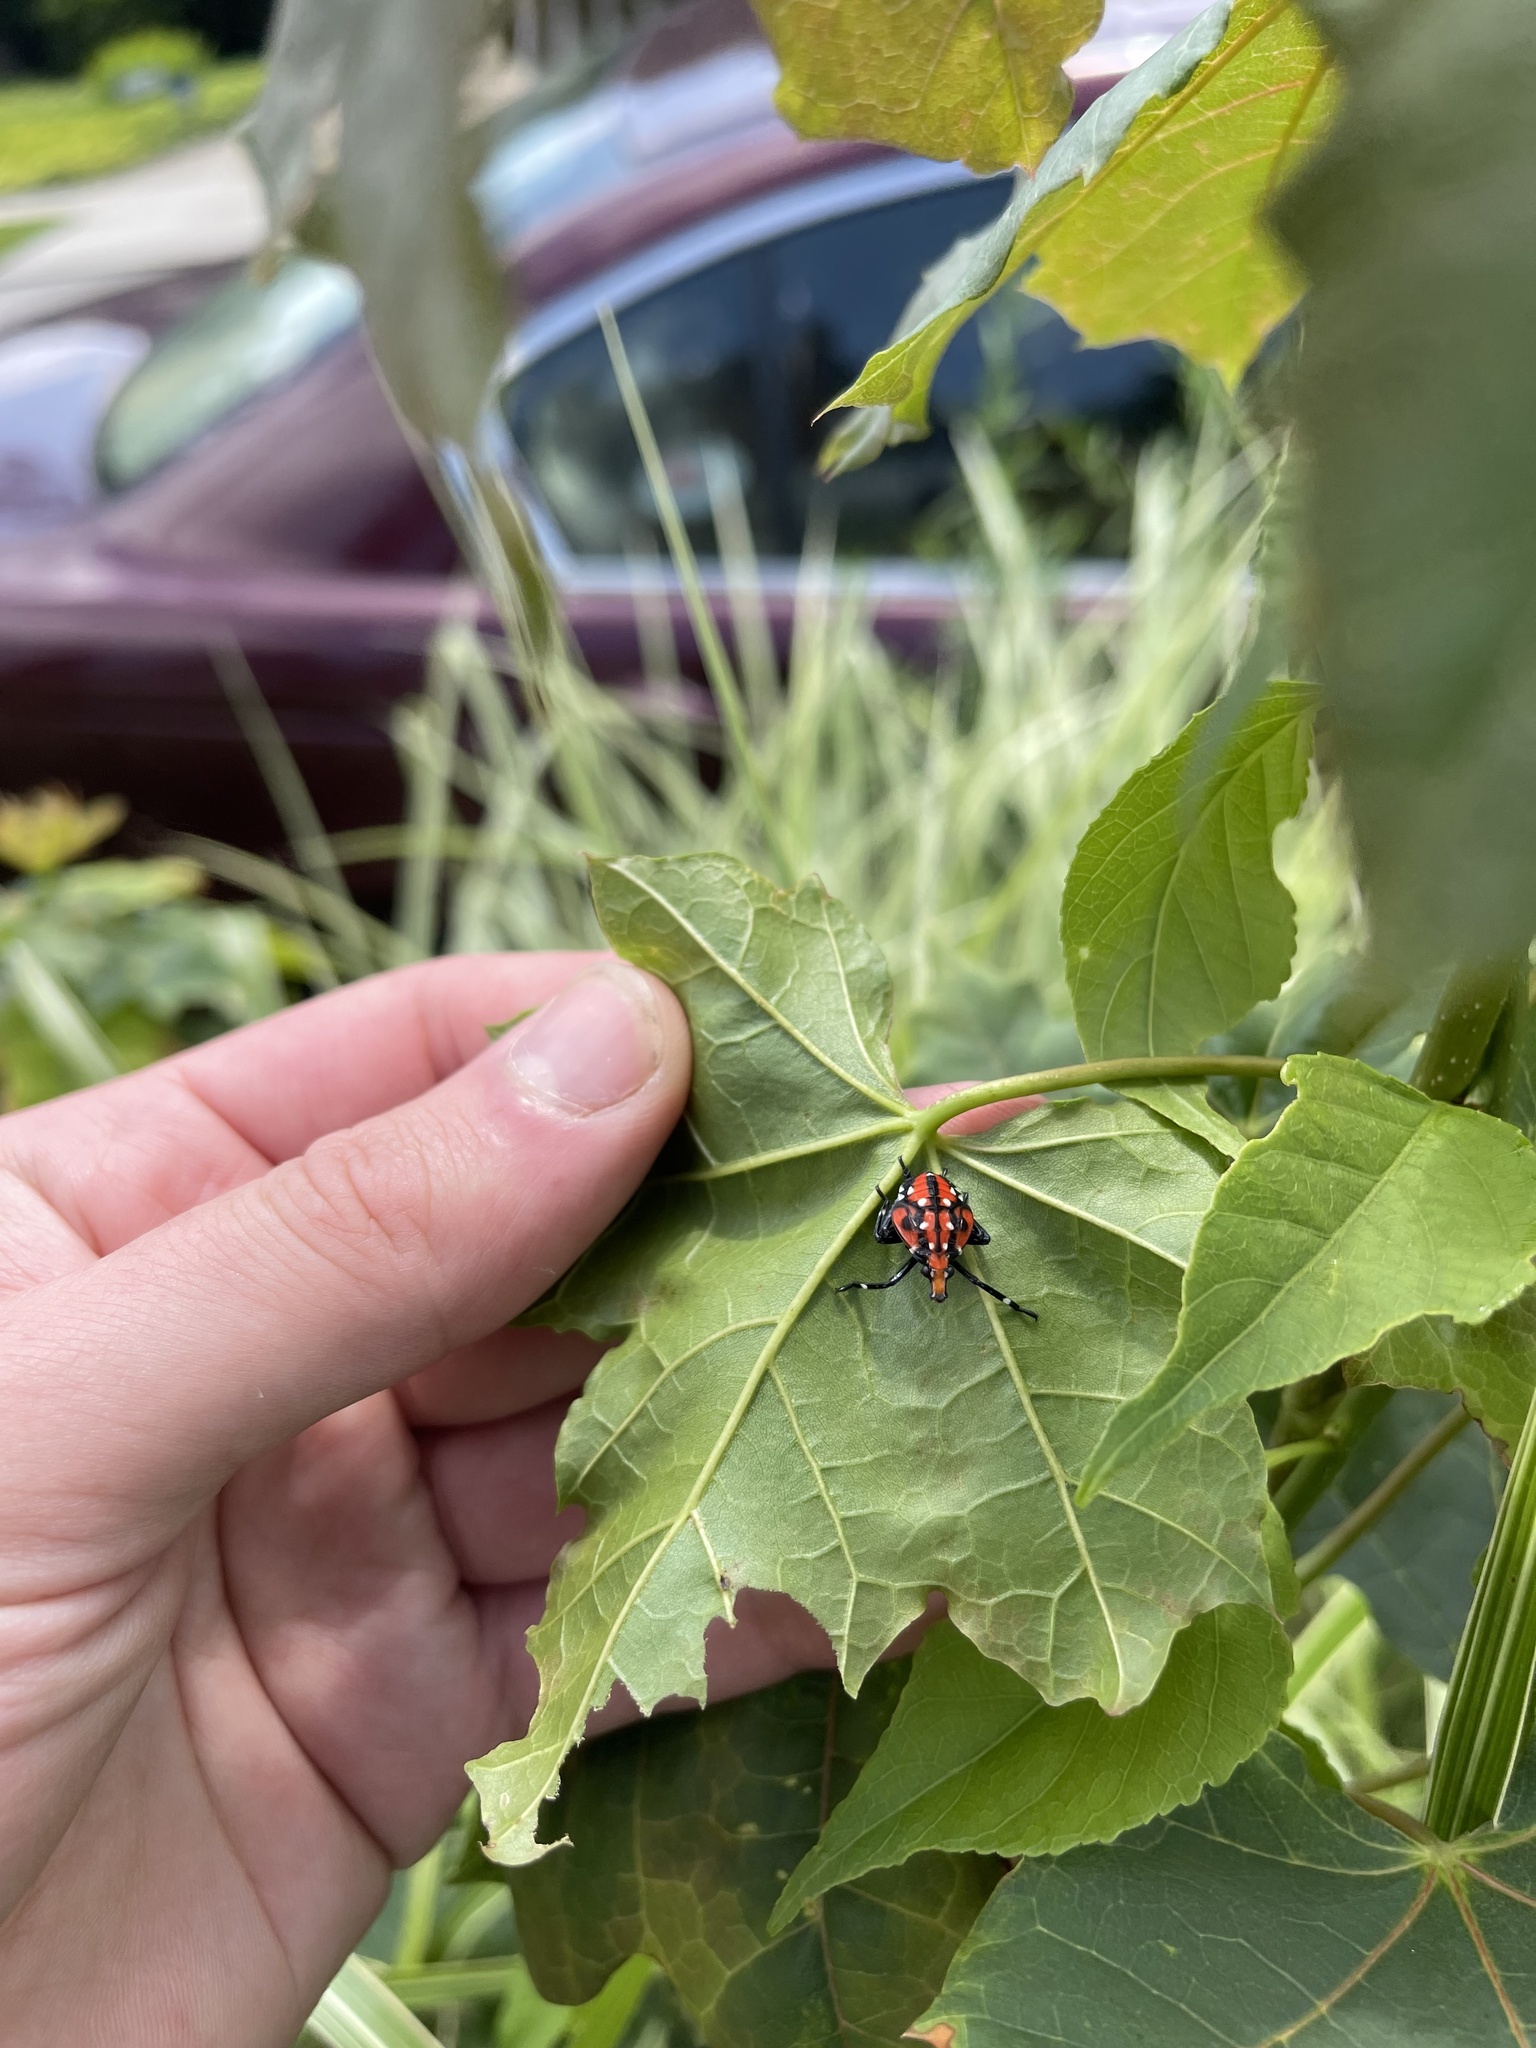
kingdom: Animalia
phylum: Arthropoda
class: Insecta
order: Hemiptera
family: Fulgoridae
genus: Lycorma
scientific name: Lycorma delicatula
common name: Spotted lanternfly
